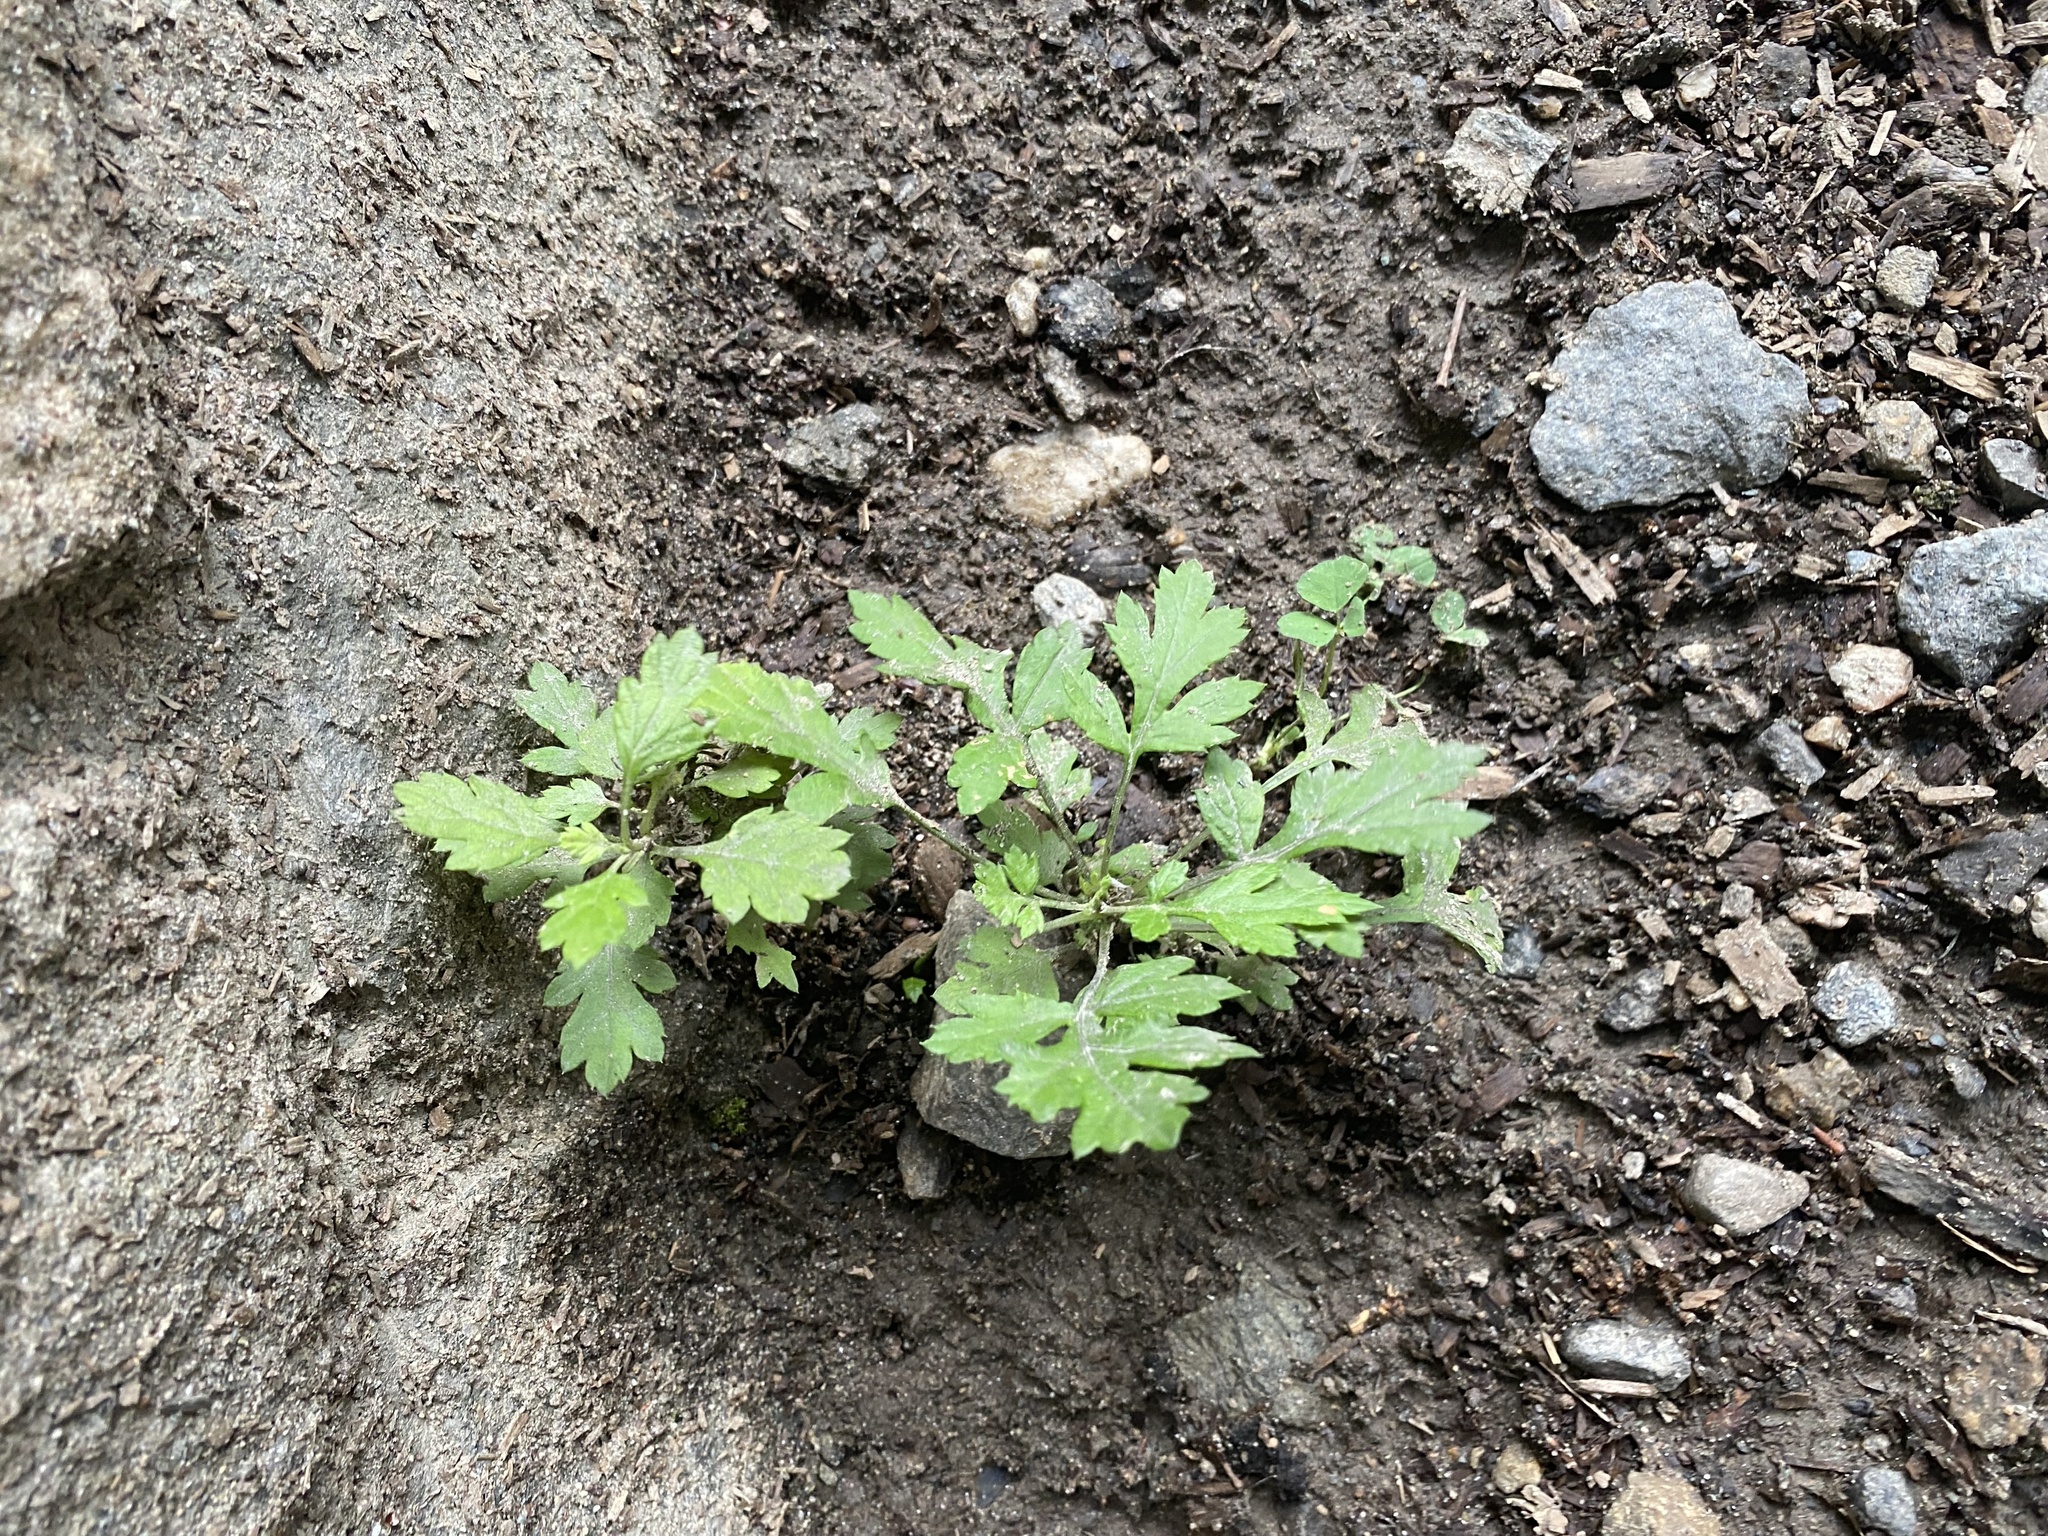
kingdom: Plantae
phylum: Tracheophyta
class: Magnoliopsida
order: Asterales
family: Asteraceae
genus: Artemisia
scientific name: Artemisia vulgaris
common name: Mugwort
